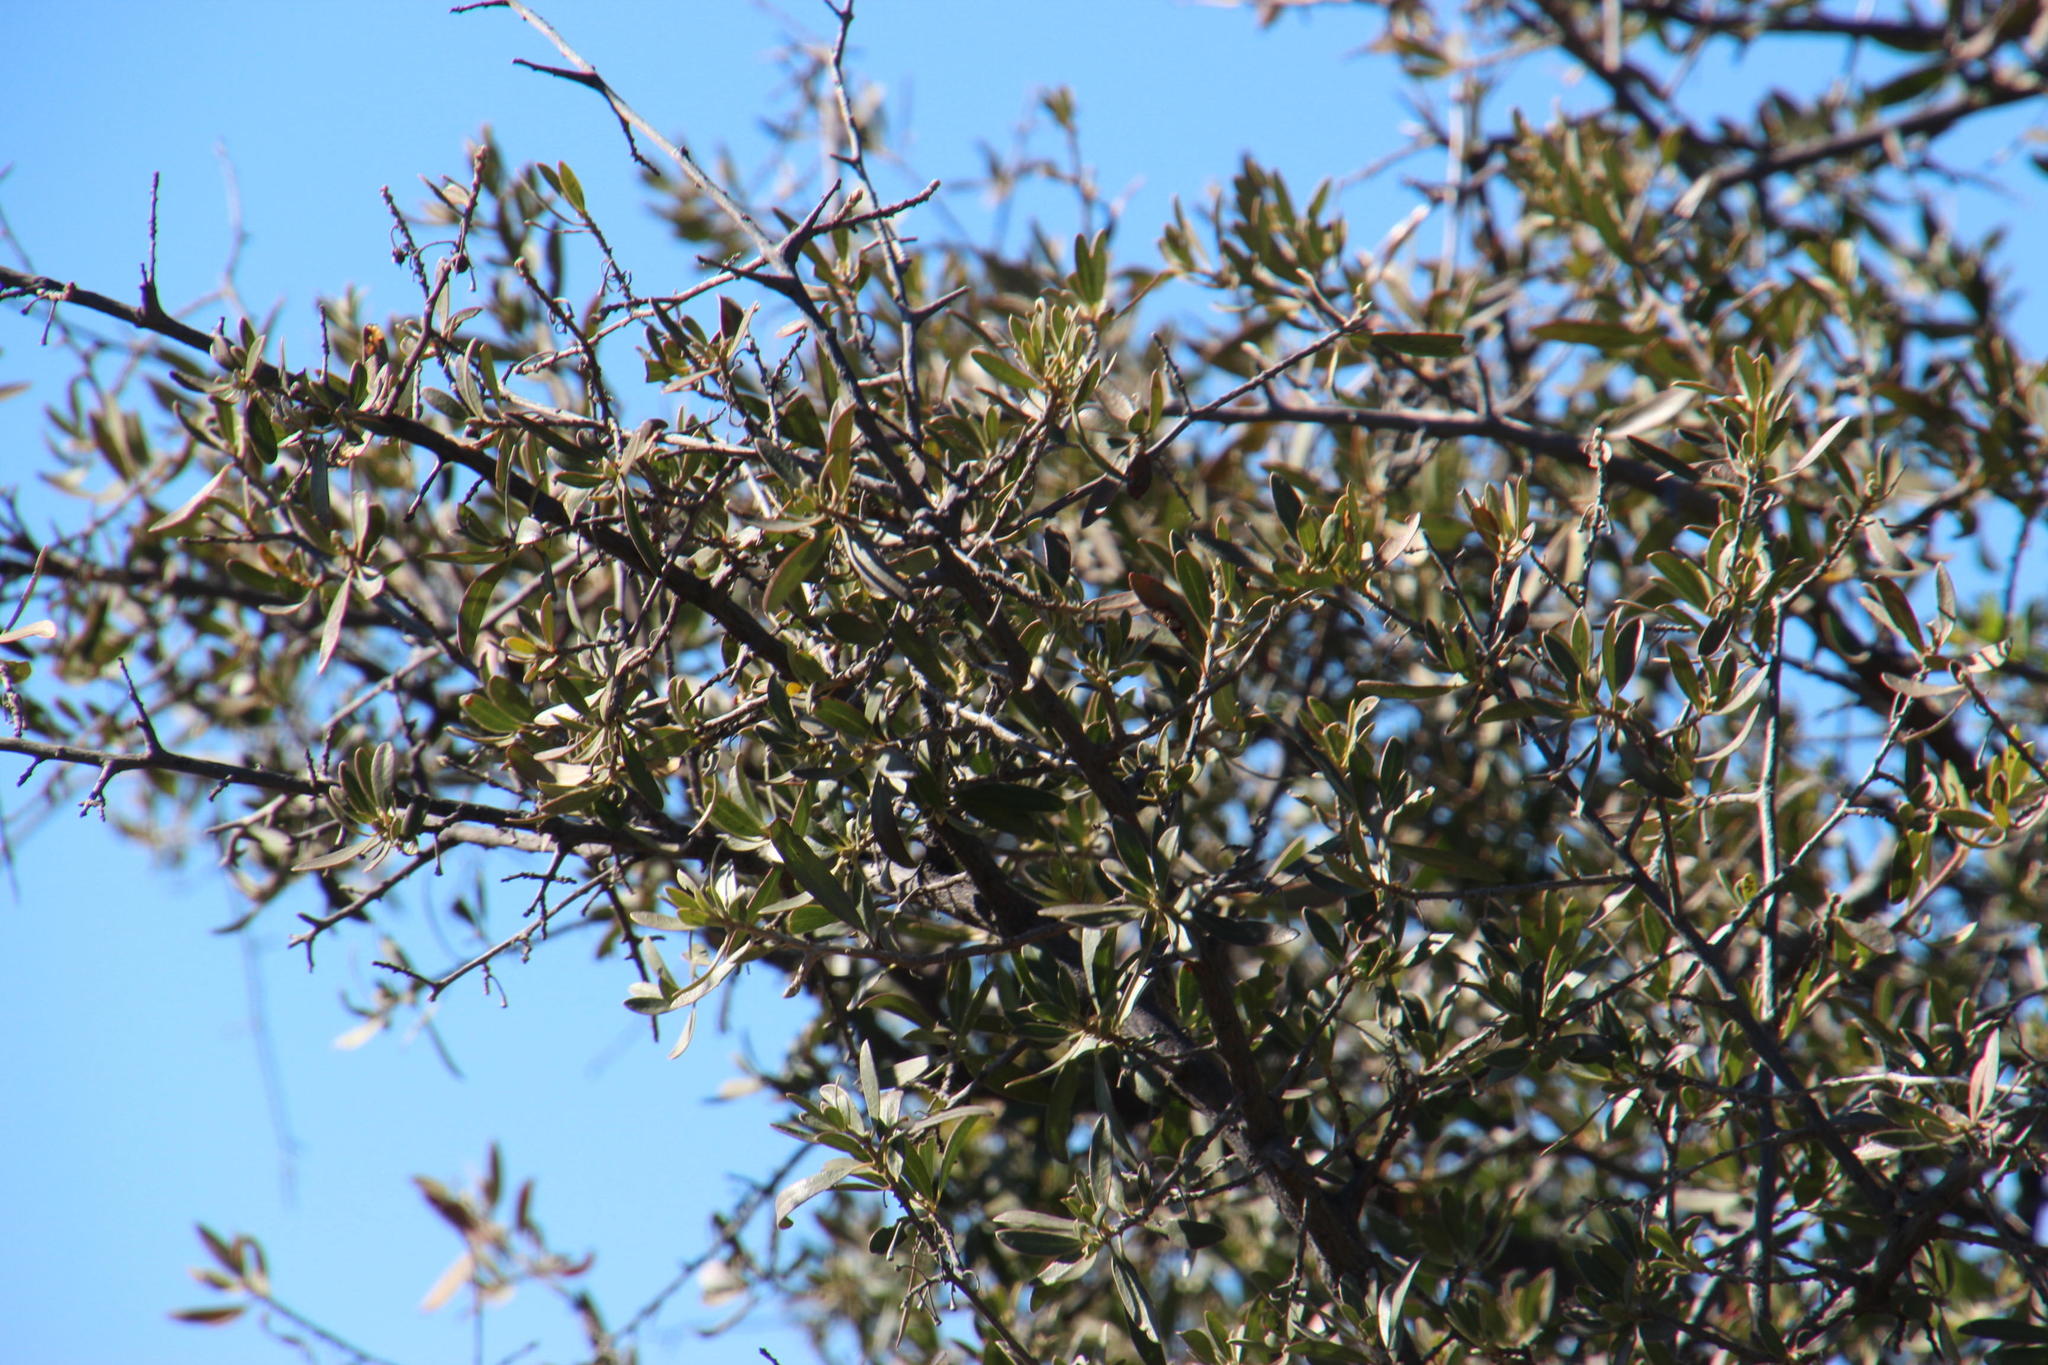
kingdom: Plantae
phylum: Tracheophyta
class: Magnoliopsida
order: Ericales
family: Ebenaceae
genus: Diospyros
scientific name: Diospyros lycioides
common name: Red star apple
